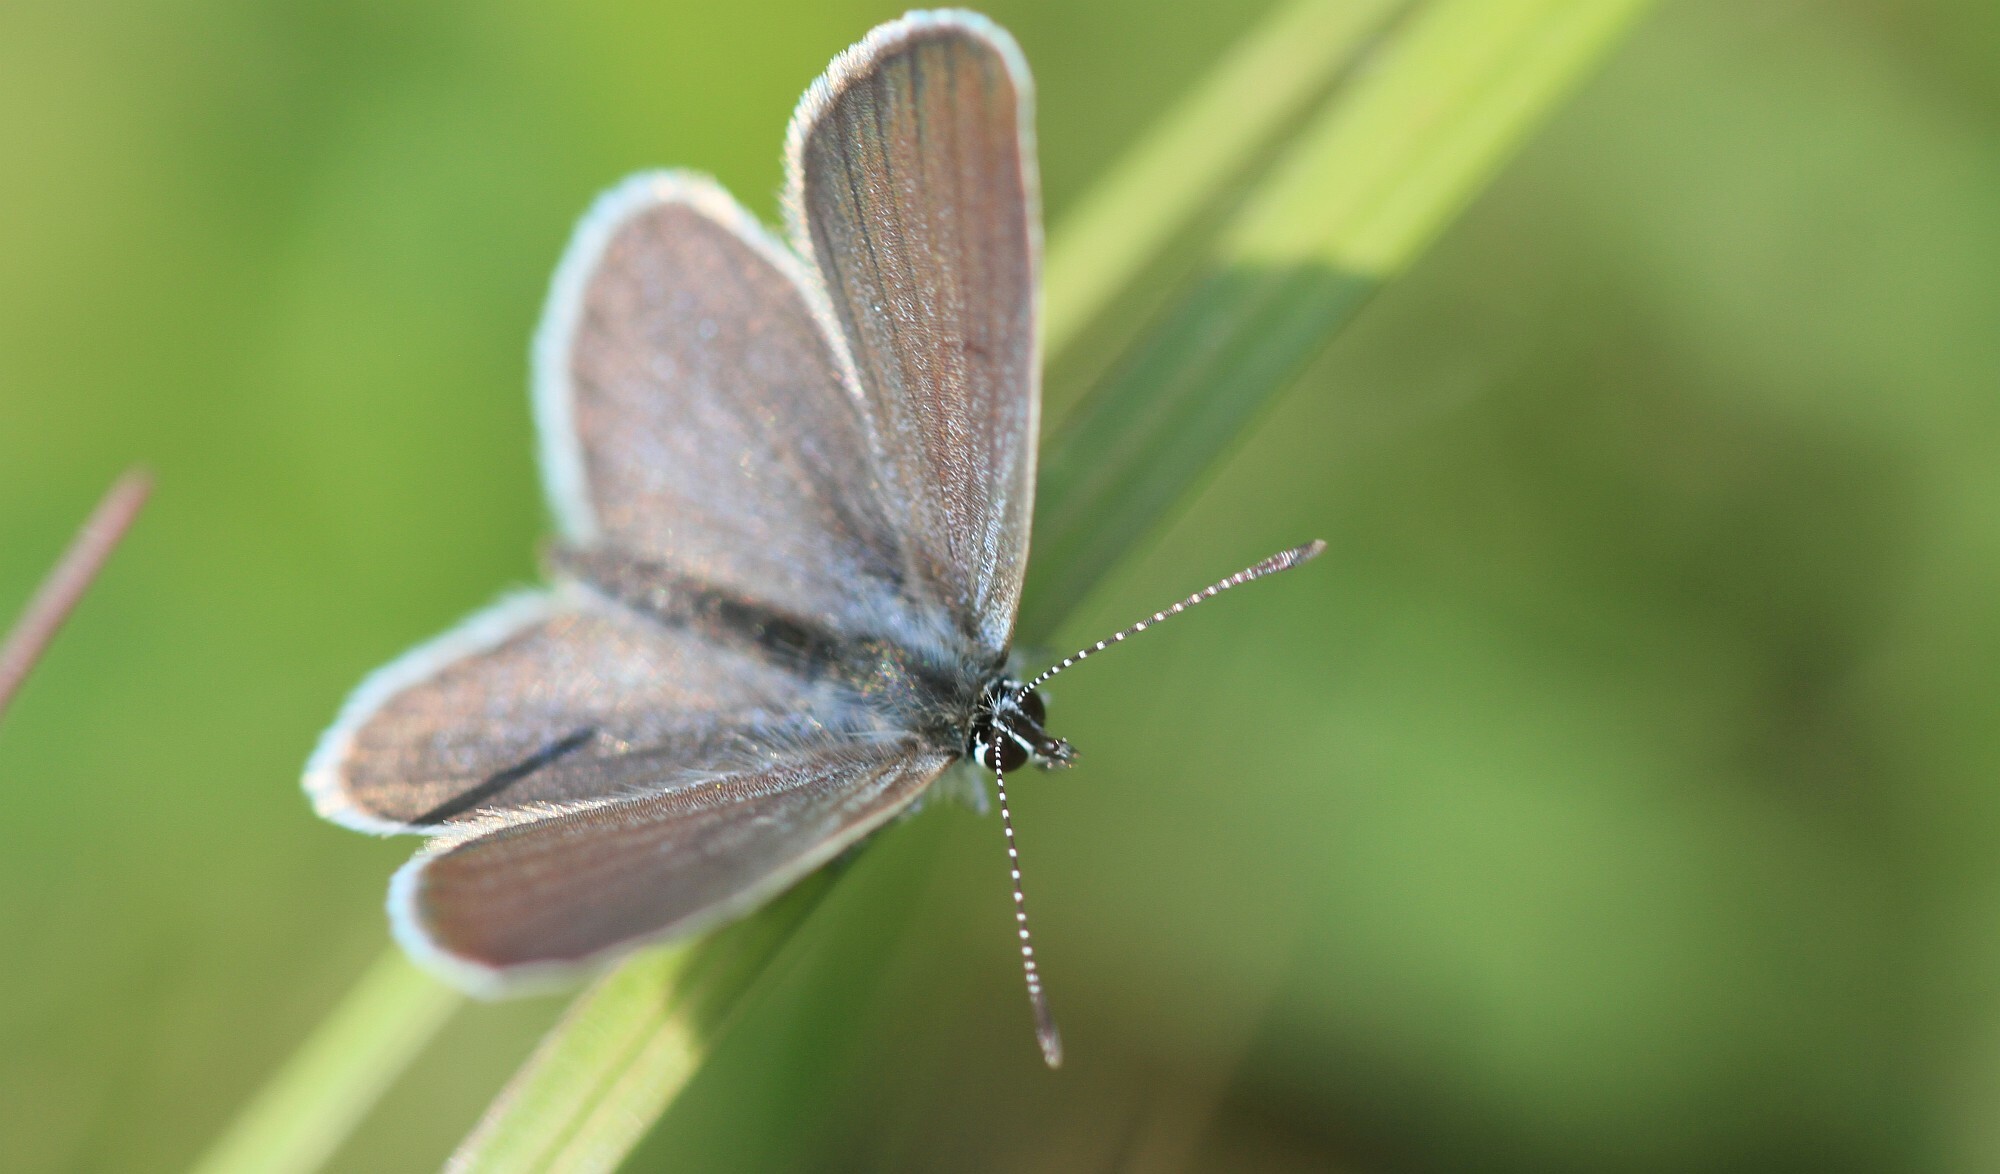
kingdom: Animalia
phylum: Arthropoda
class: Insecta
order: Lepidoptera
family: Lycaenidae
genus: Cupido
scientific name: Cupido minimus
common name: Small blue
